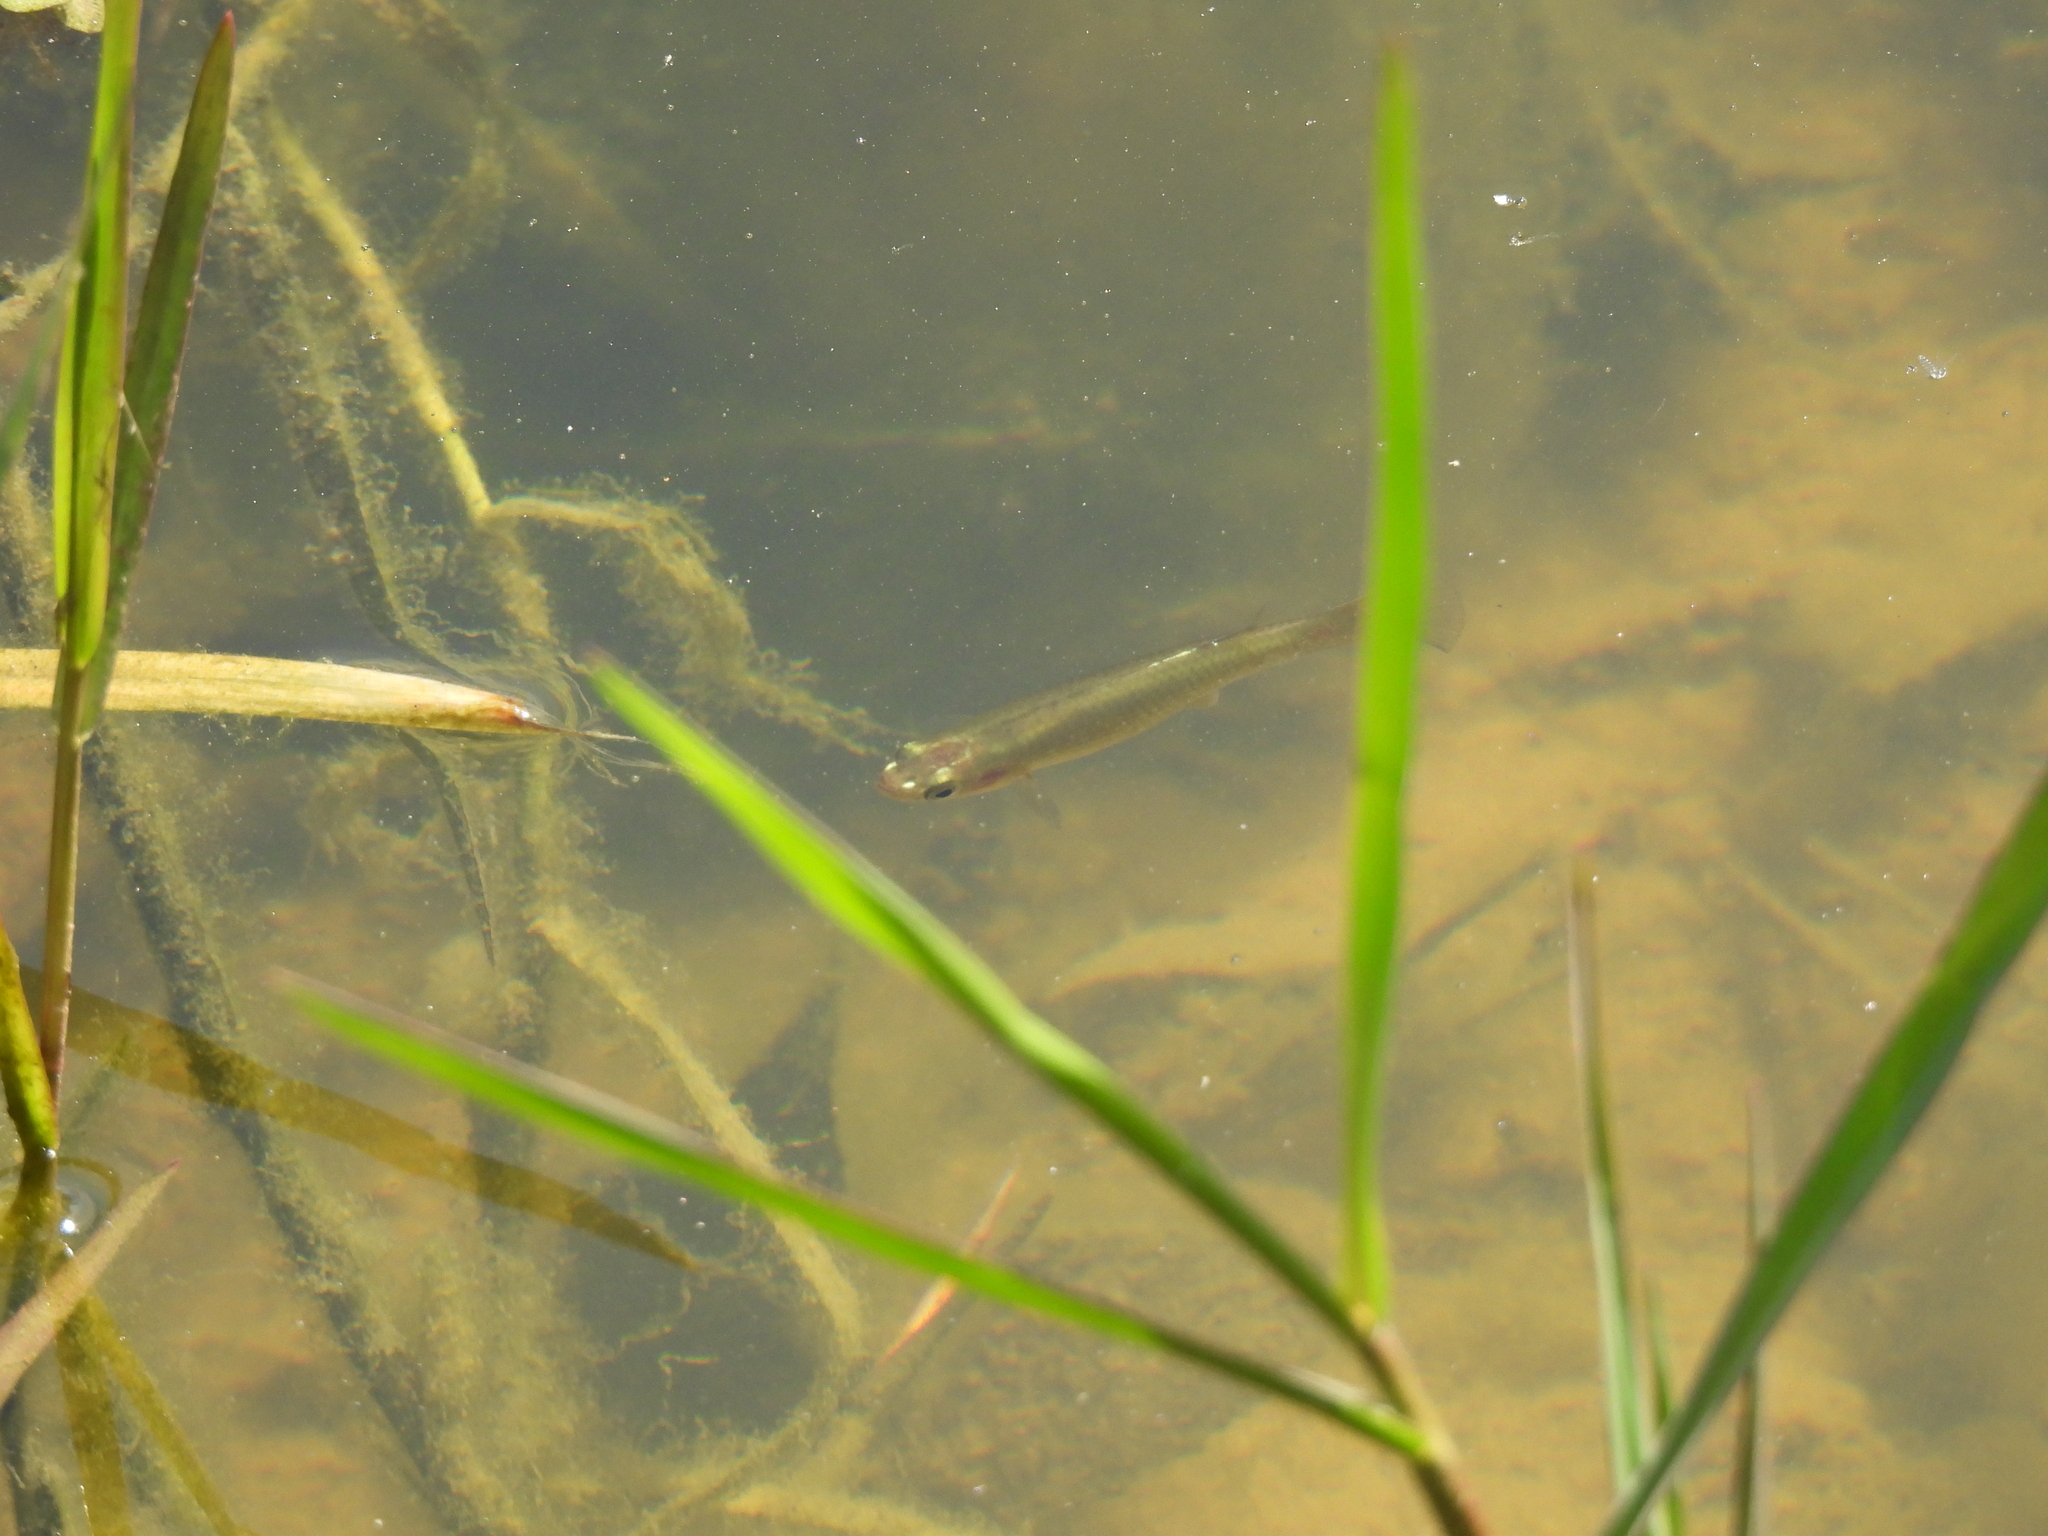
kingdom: Animalia
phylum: Chordata
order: Cyprinodontiformes
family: Poeciliidae
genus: Gambusia
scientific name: Gambusia affinis
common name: Mosquitofish
